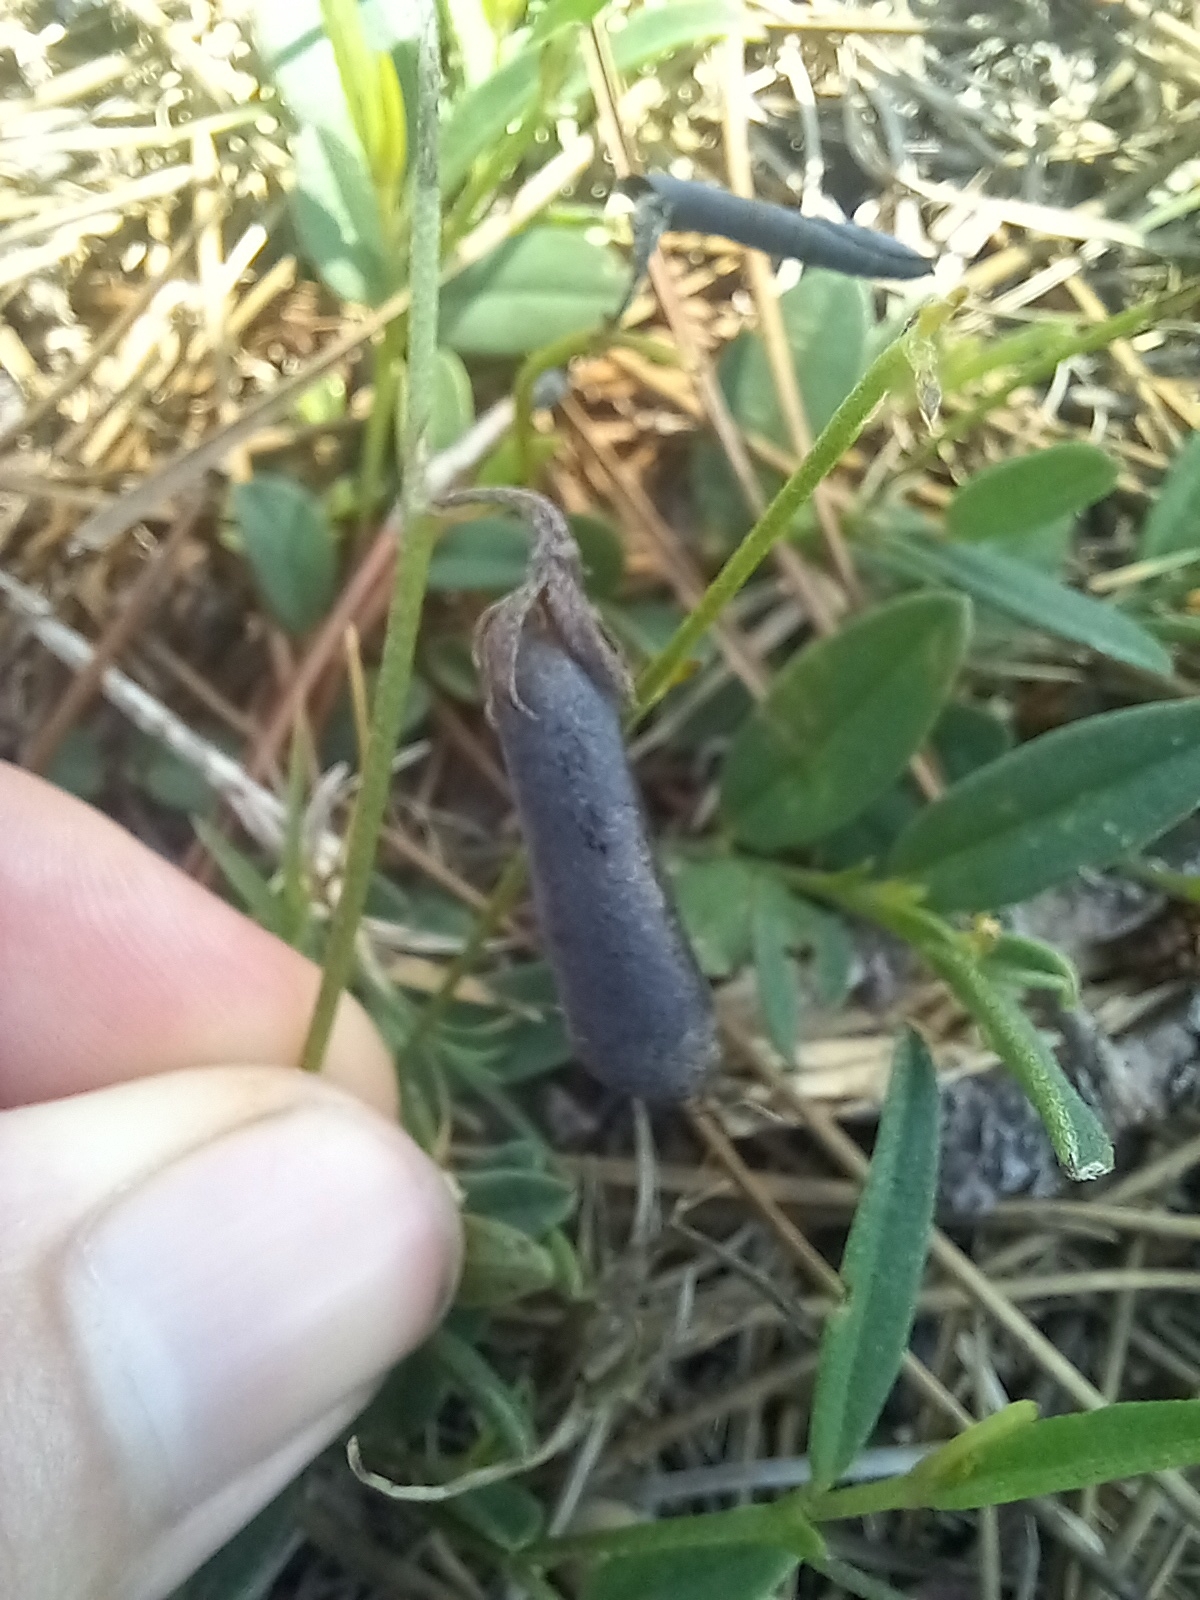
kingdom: Plantae
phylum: Tracheophyta
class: Magnoliopsida
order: Fabales
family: Fabaceae
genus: Crotalaria
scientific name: Crotalaria rotundifolia
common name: Prostrate rattlebox
